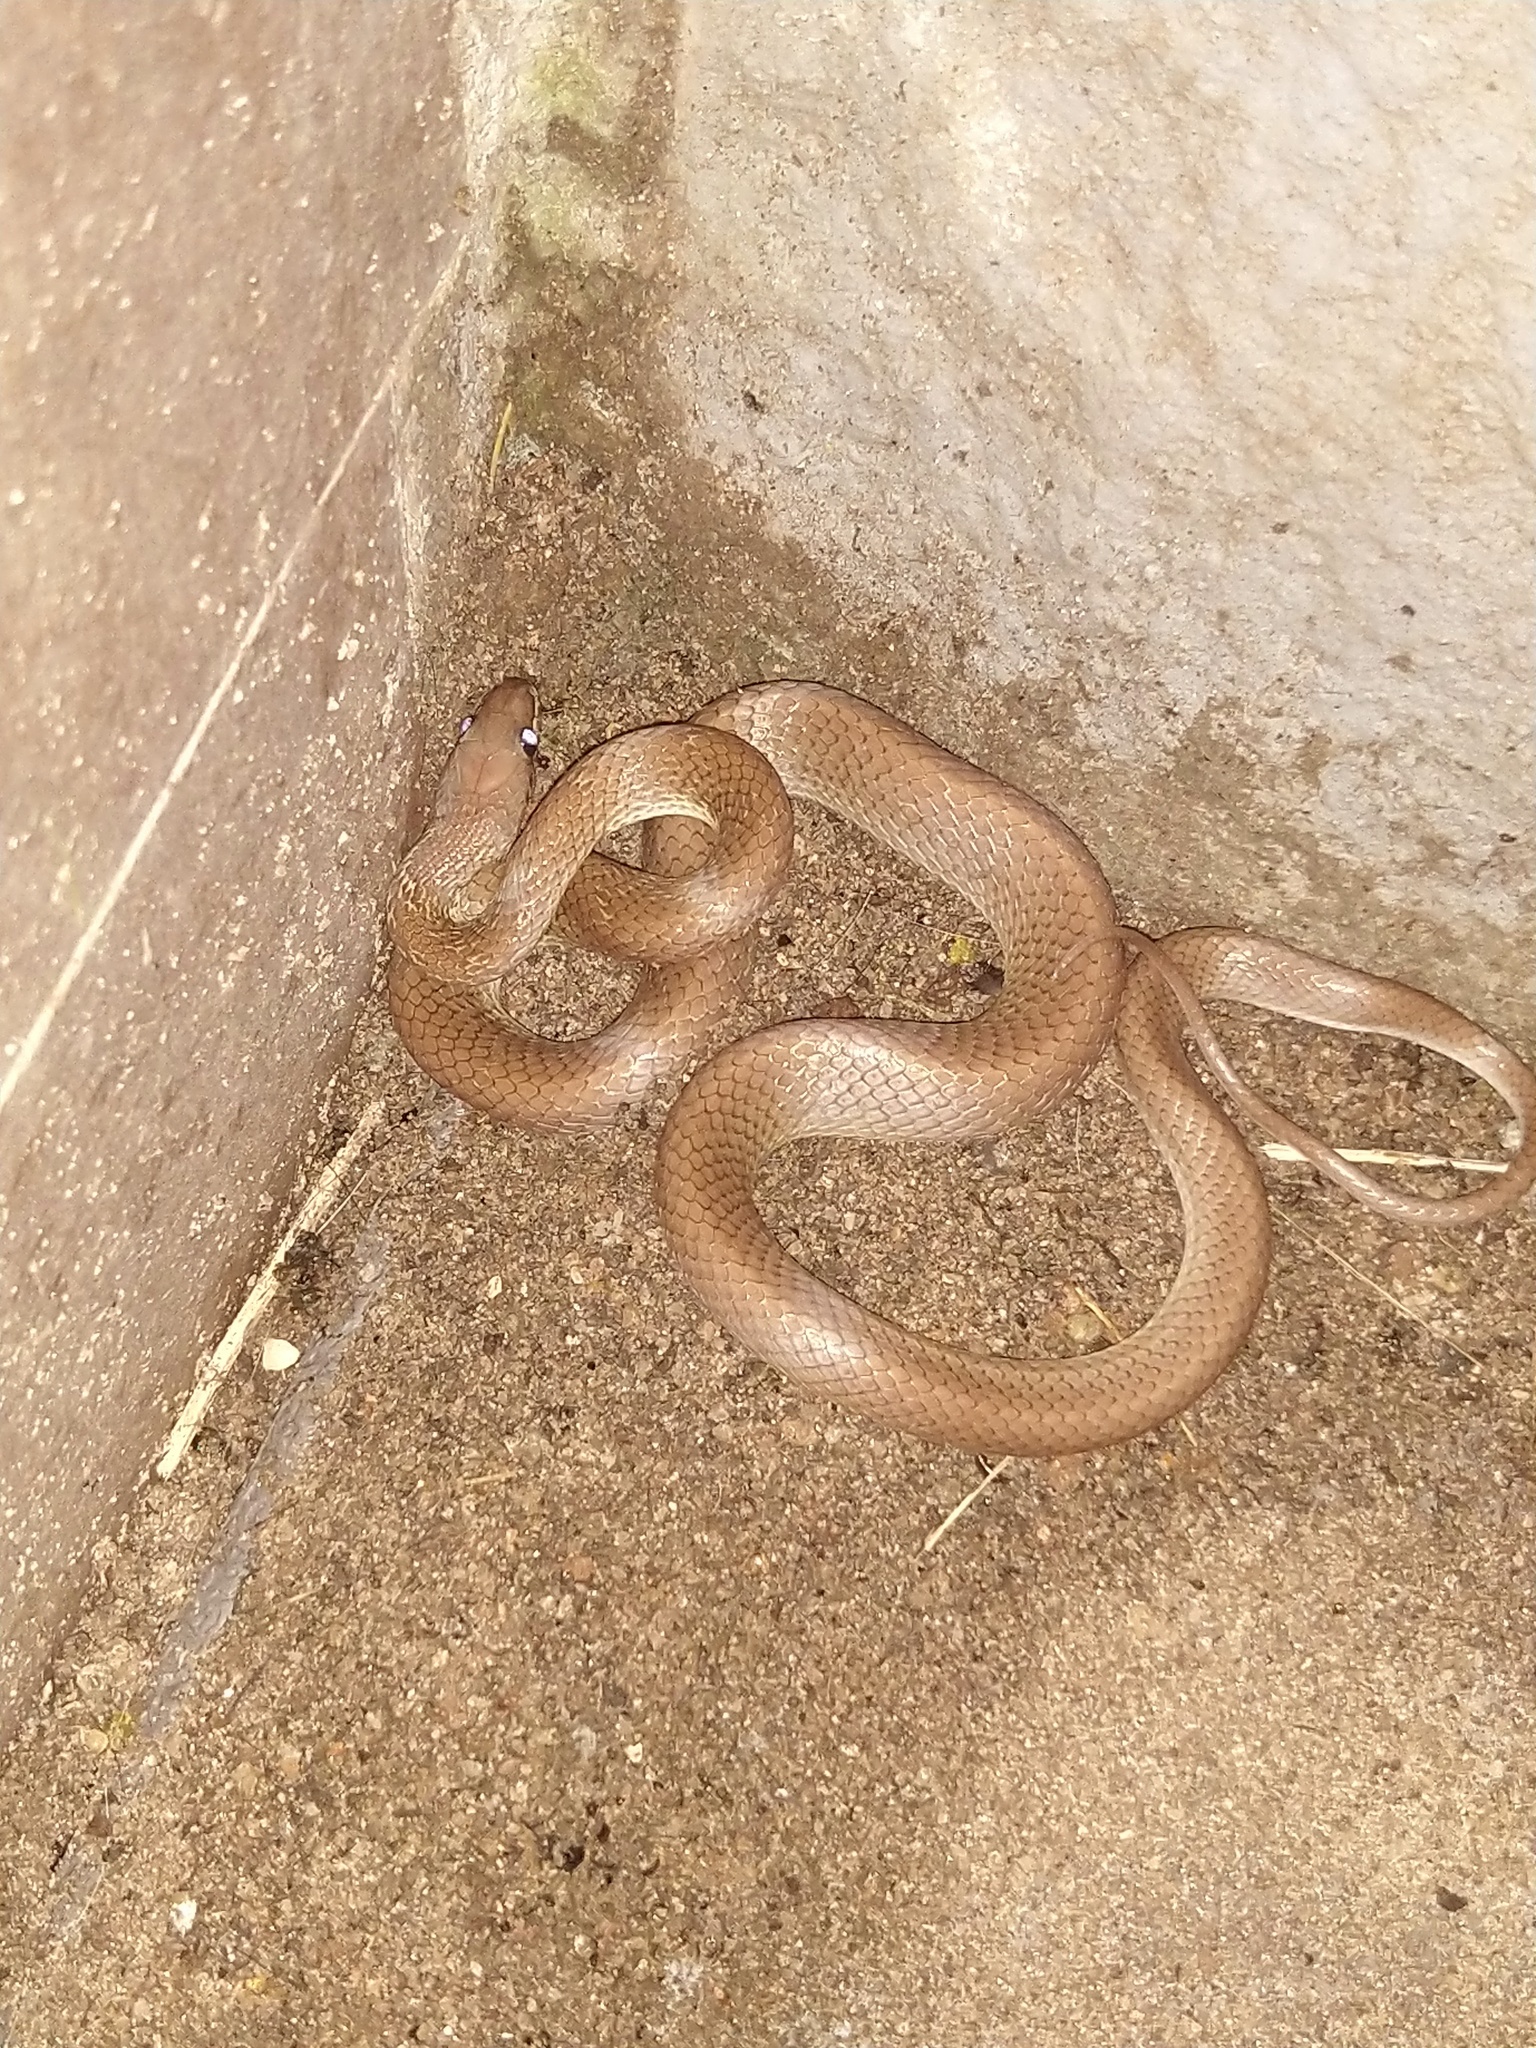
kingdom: Animalia
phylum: Chordata
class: Squamata
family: Colubridae
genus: Lycodon
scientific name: Lycodon fasciolatus
